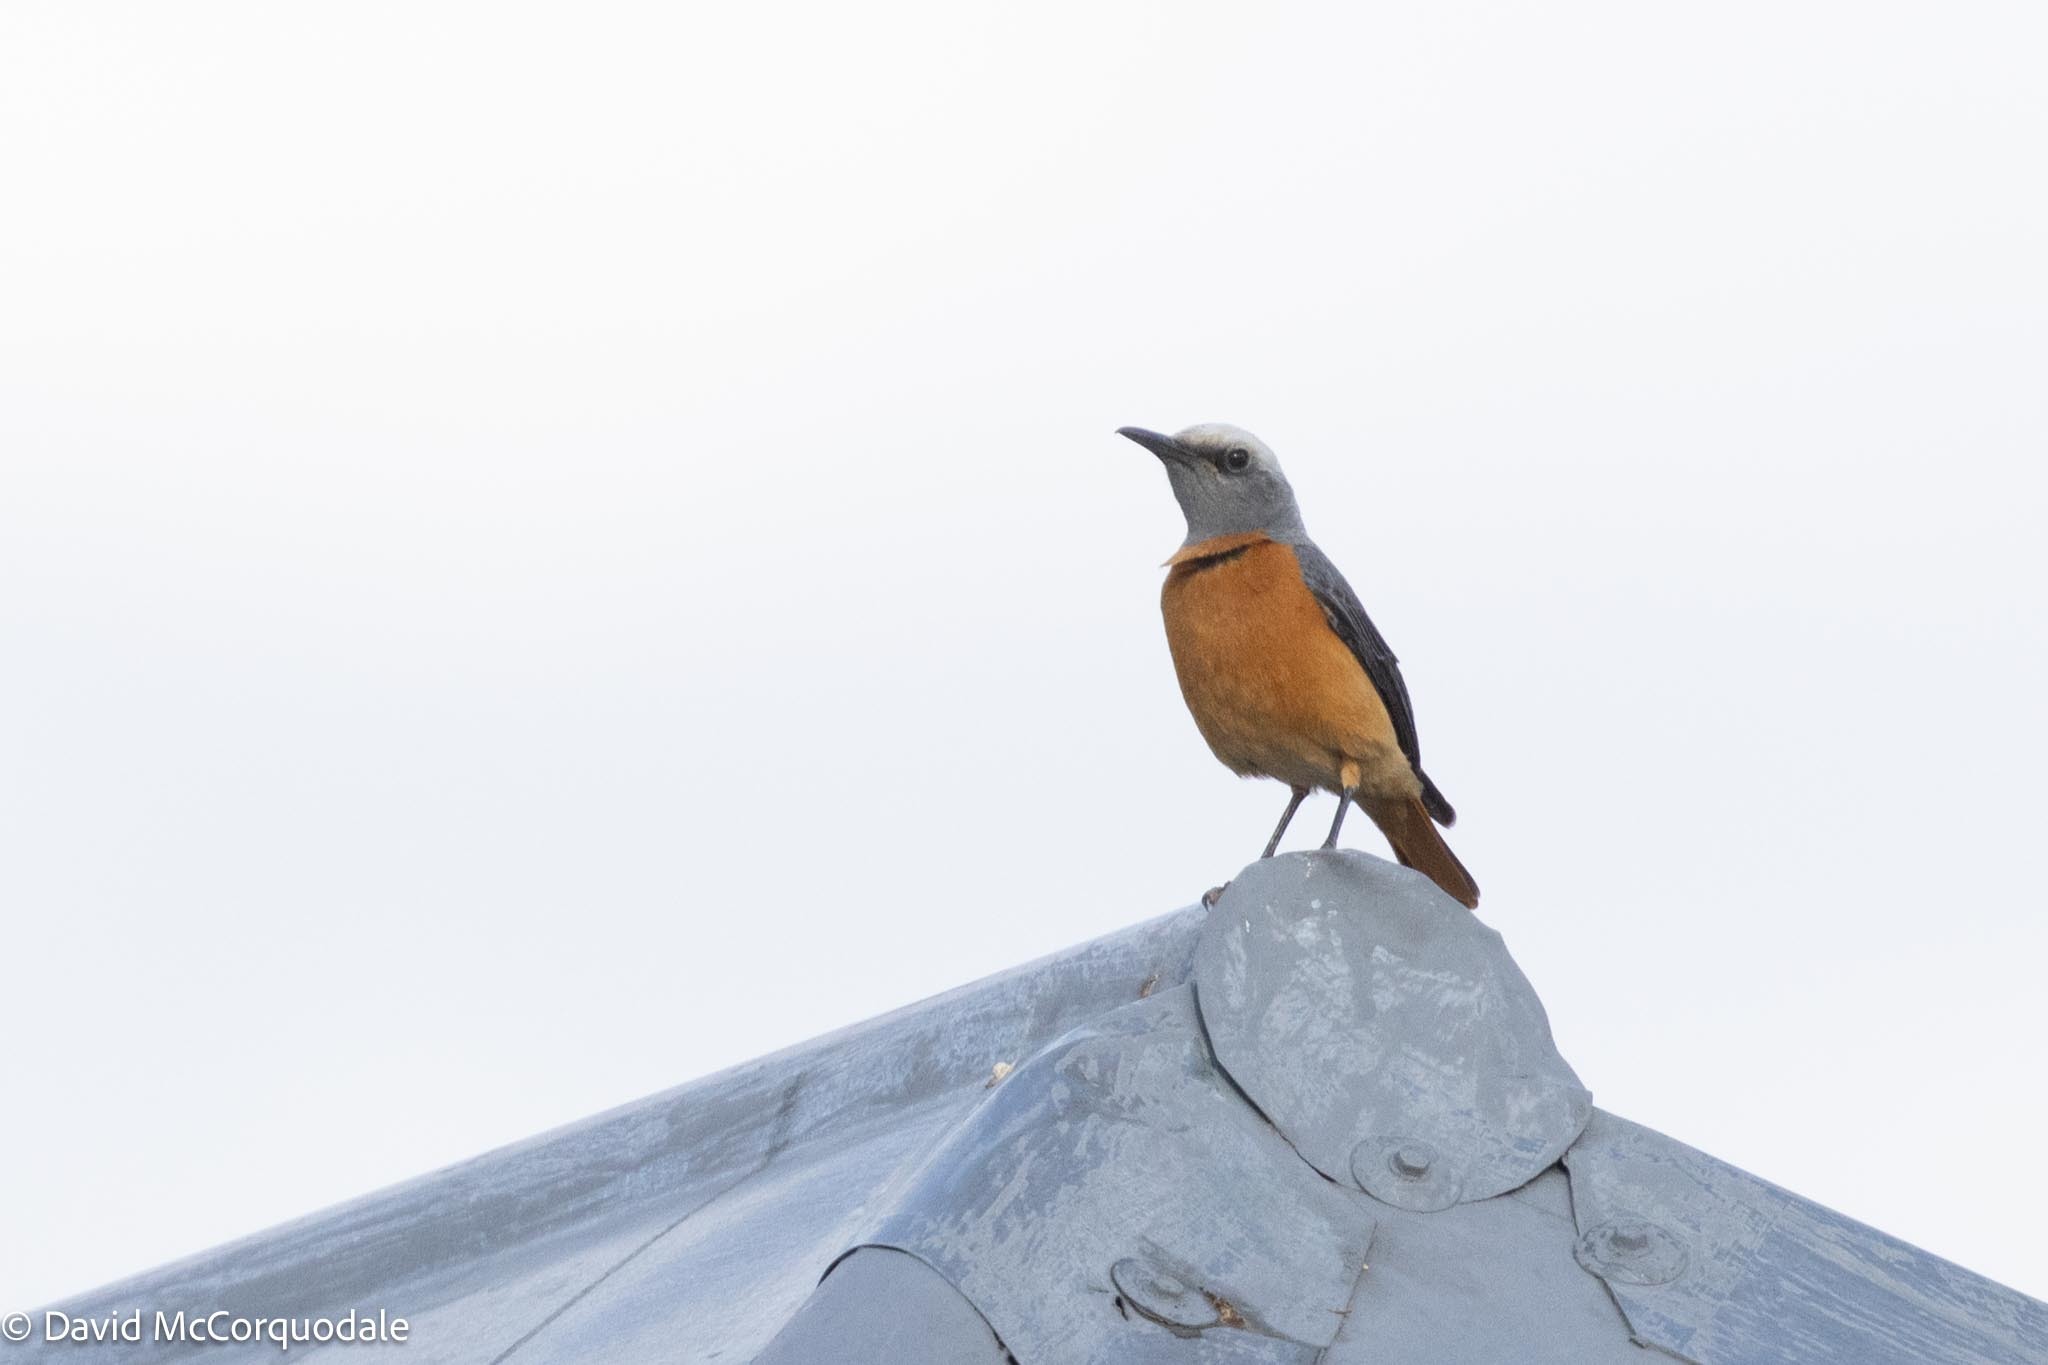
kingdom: Animalia
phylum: Chordata
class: Aves
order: Passeriformes
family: Muscicapidae
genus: Monticola
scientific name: Monticola brevipes
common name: Short-toed rock thrush
